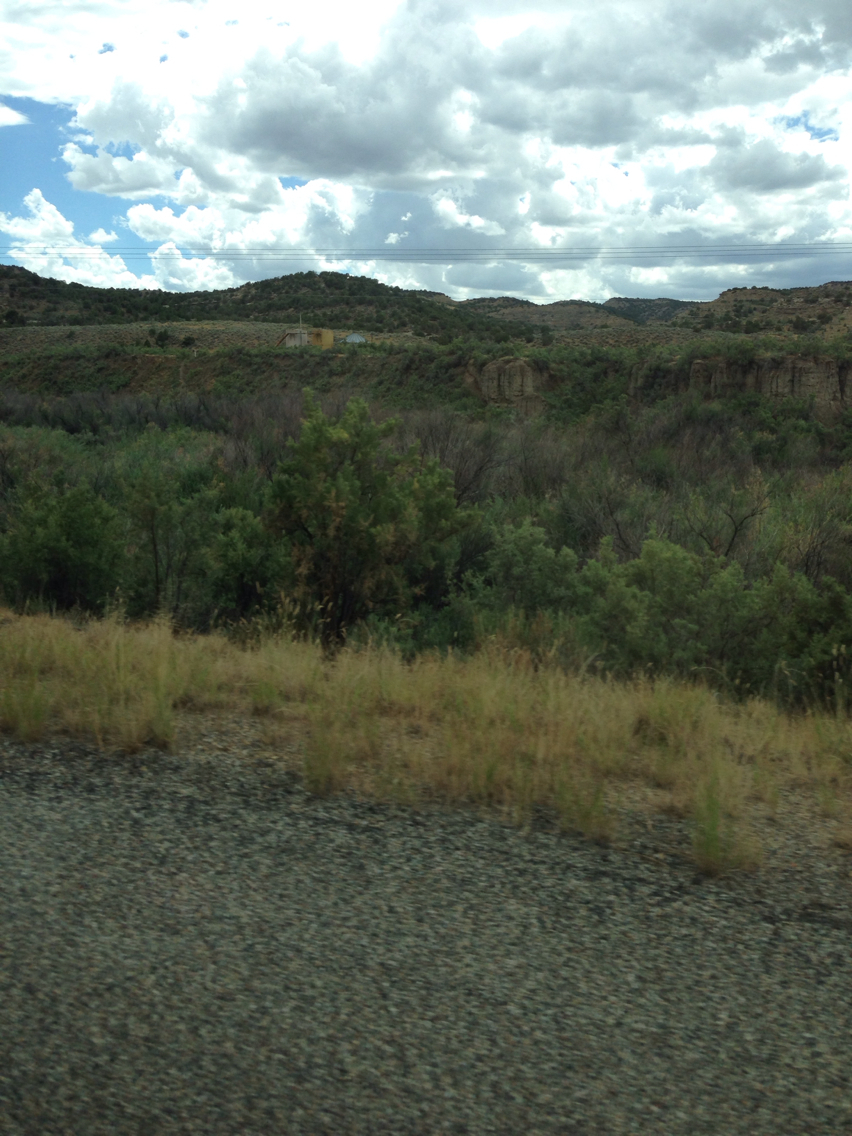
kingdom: Plantae
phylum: Tracheophyta
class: Magnoliopsida
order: Caryophyllales
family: Tamaricaceae
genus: Tamarix
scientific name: Tamarix ramosissima
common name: Pink tamarisk
